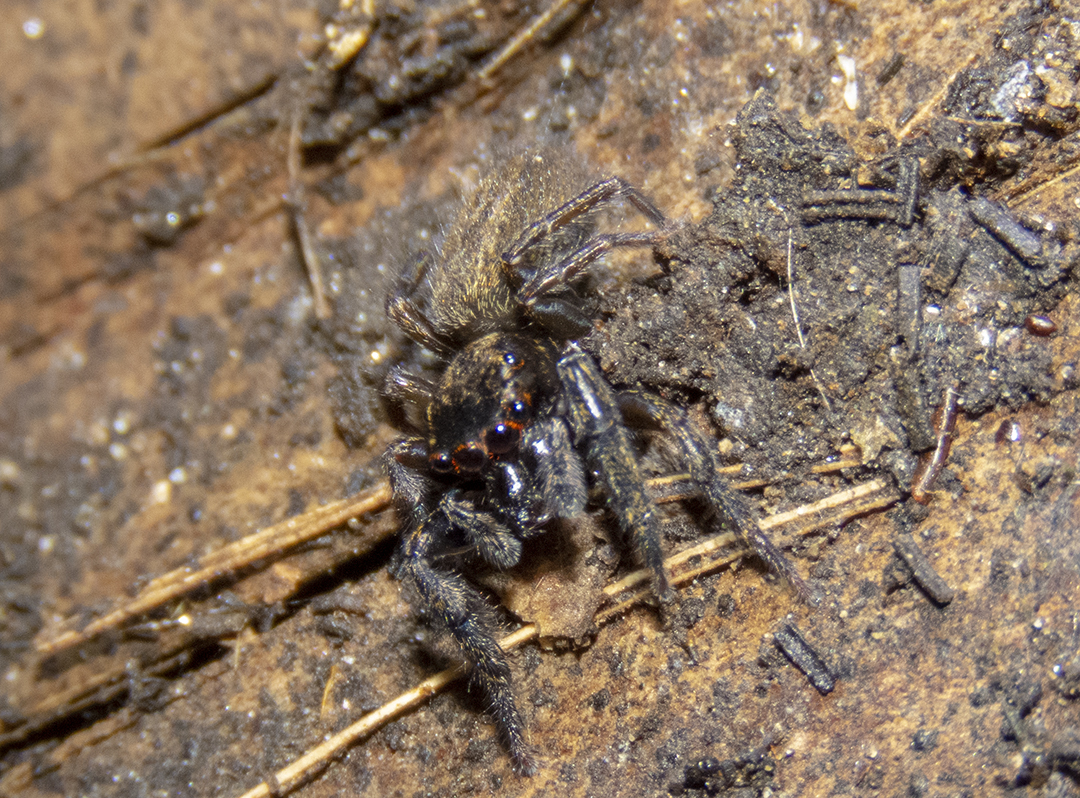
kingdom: Animalia
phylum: Arthropoda
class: Arachnida
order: Araneae
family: Salticidae
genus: Trite
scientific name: Trite auricoma
